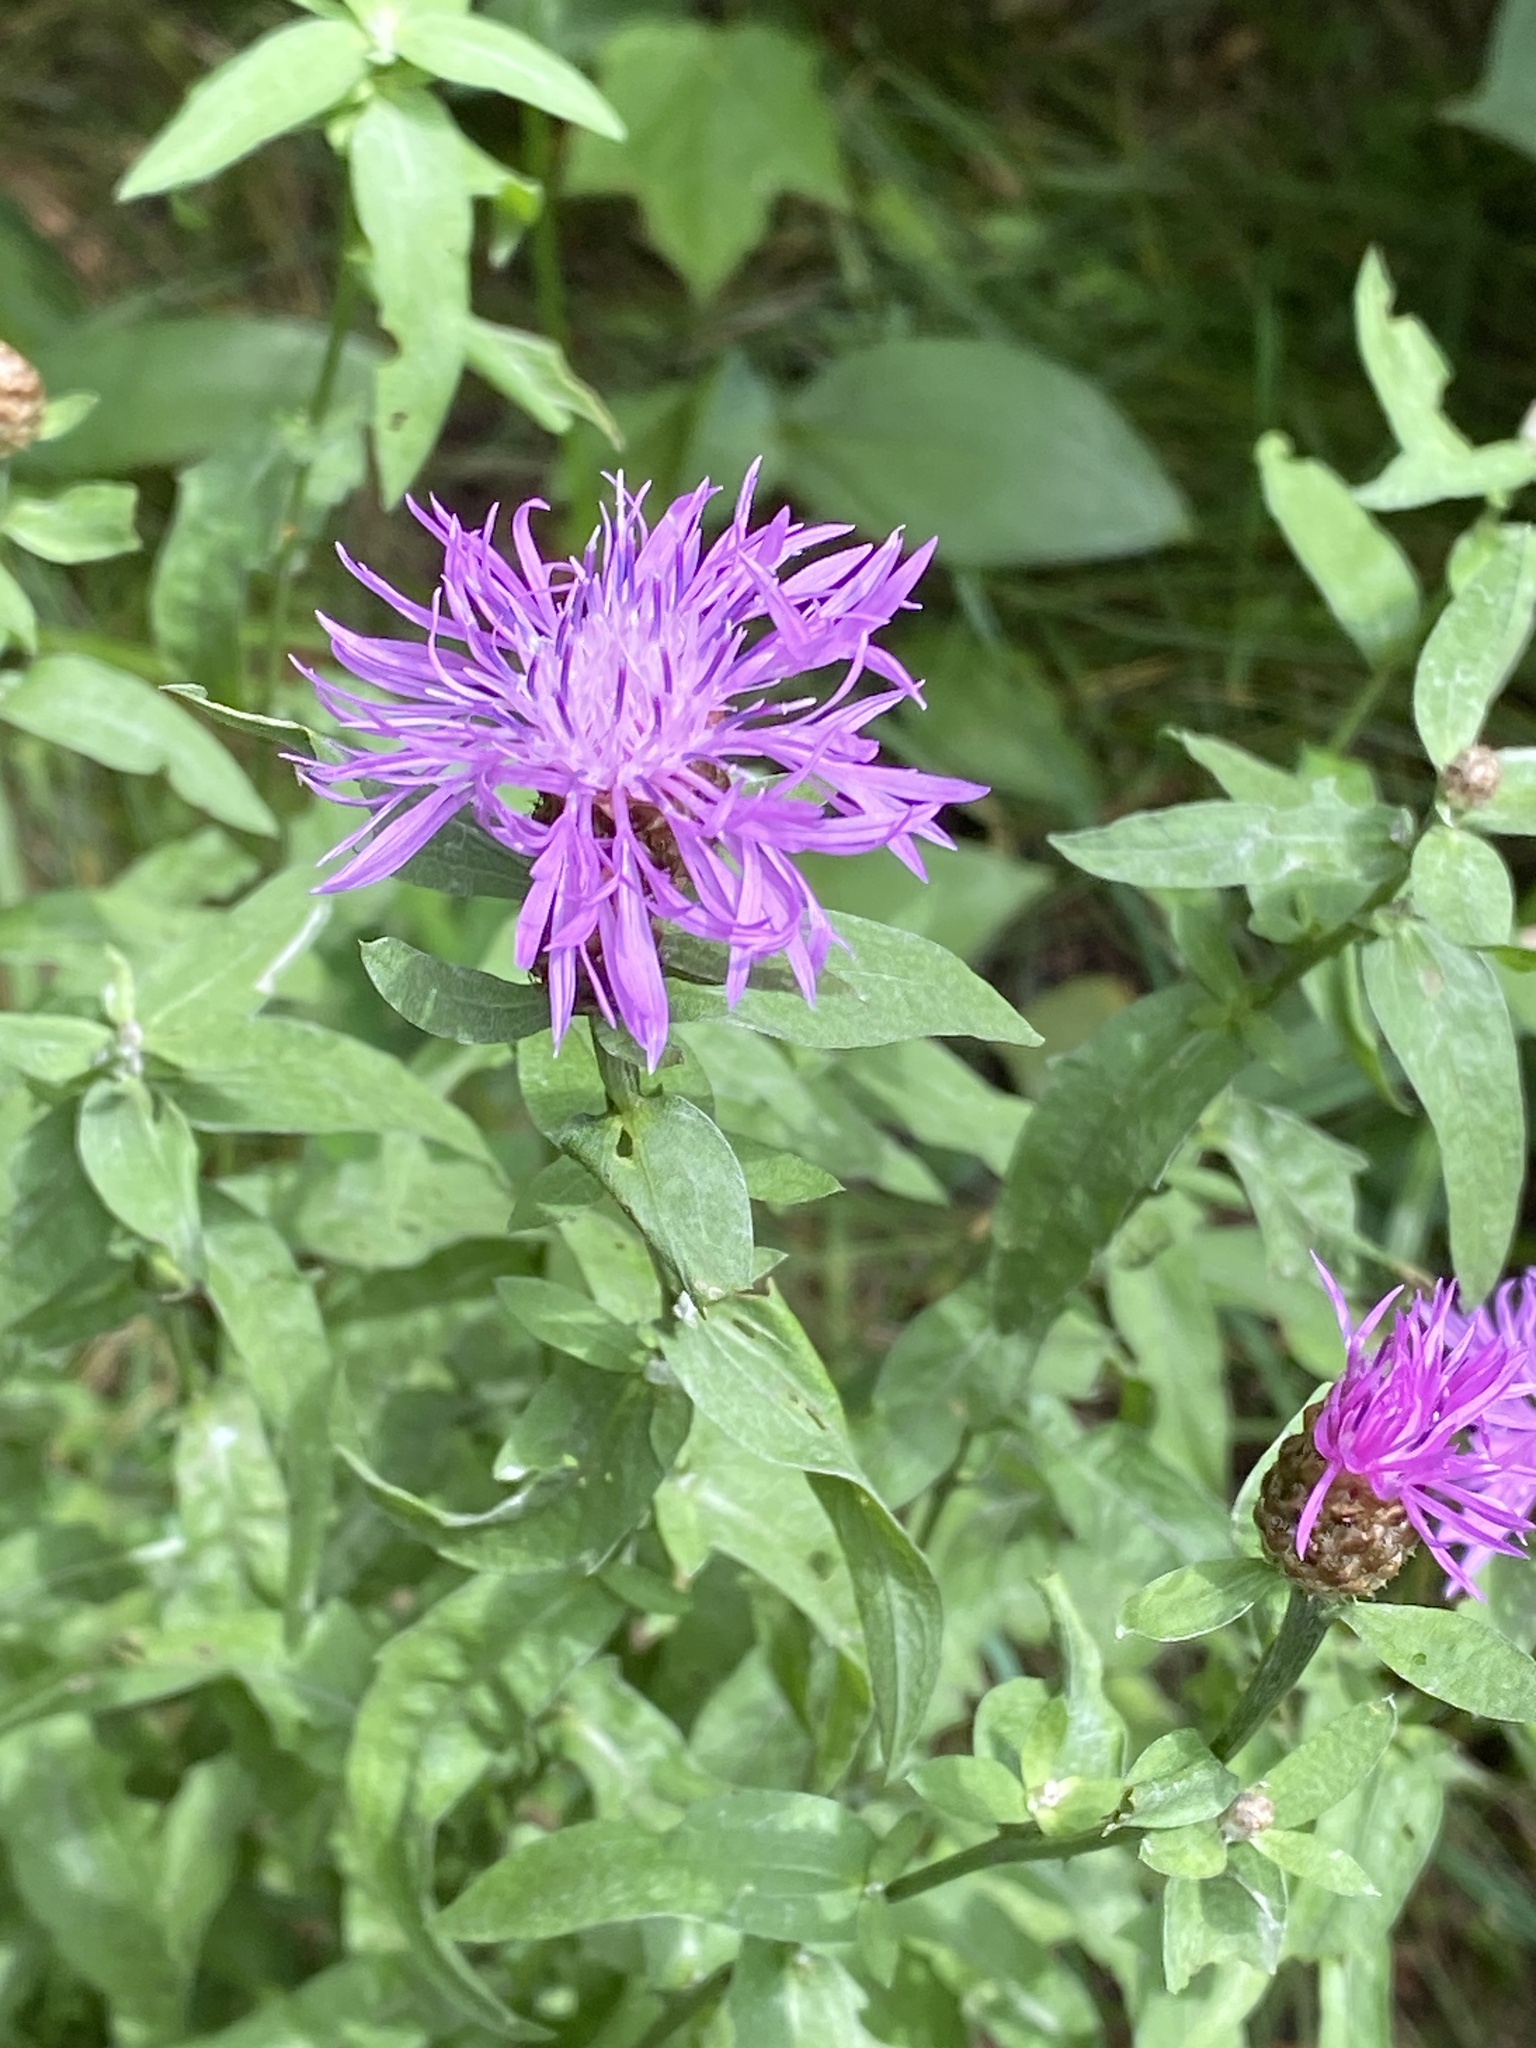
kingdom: Plantae
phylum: Tracheophyta
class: Magnoliopsida
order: Asterales
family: Asteraceae
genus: Centaurea
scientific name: Centaurea jacea
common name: Brown knapweed
